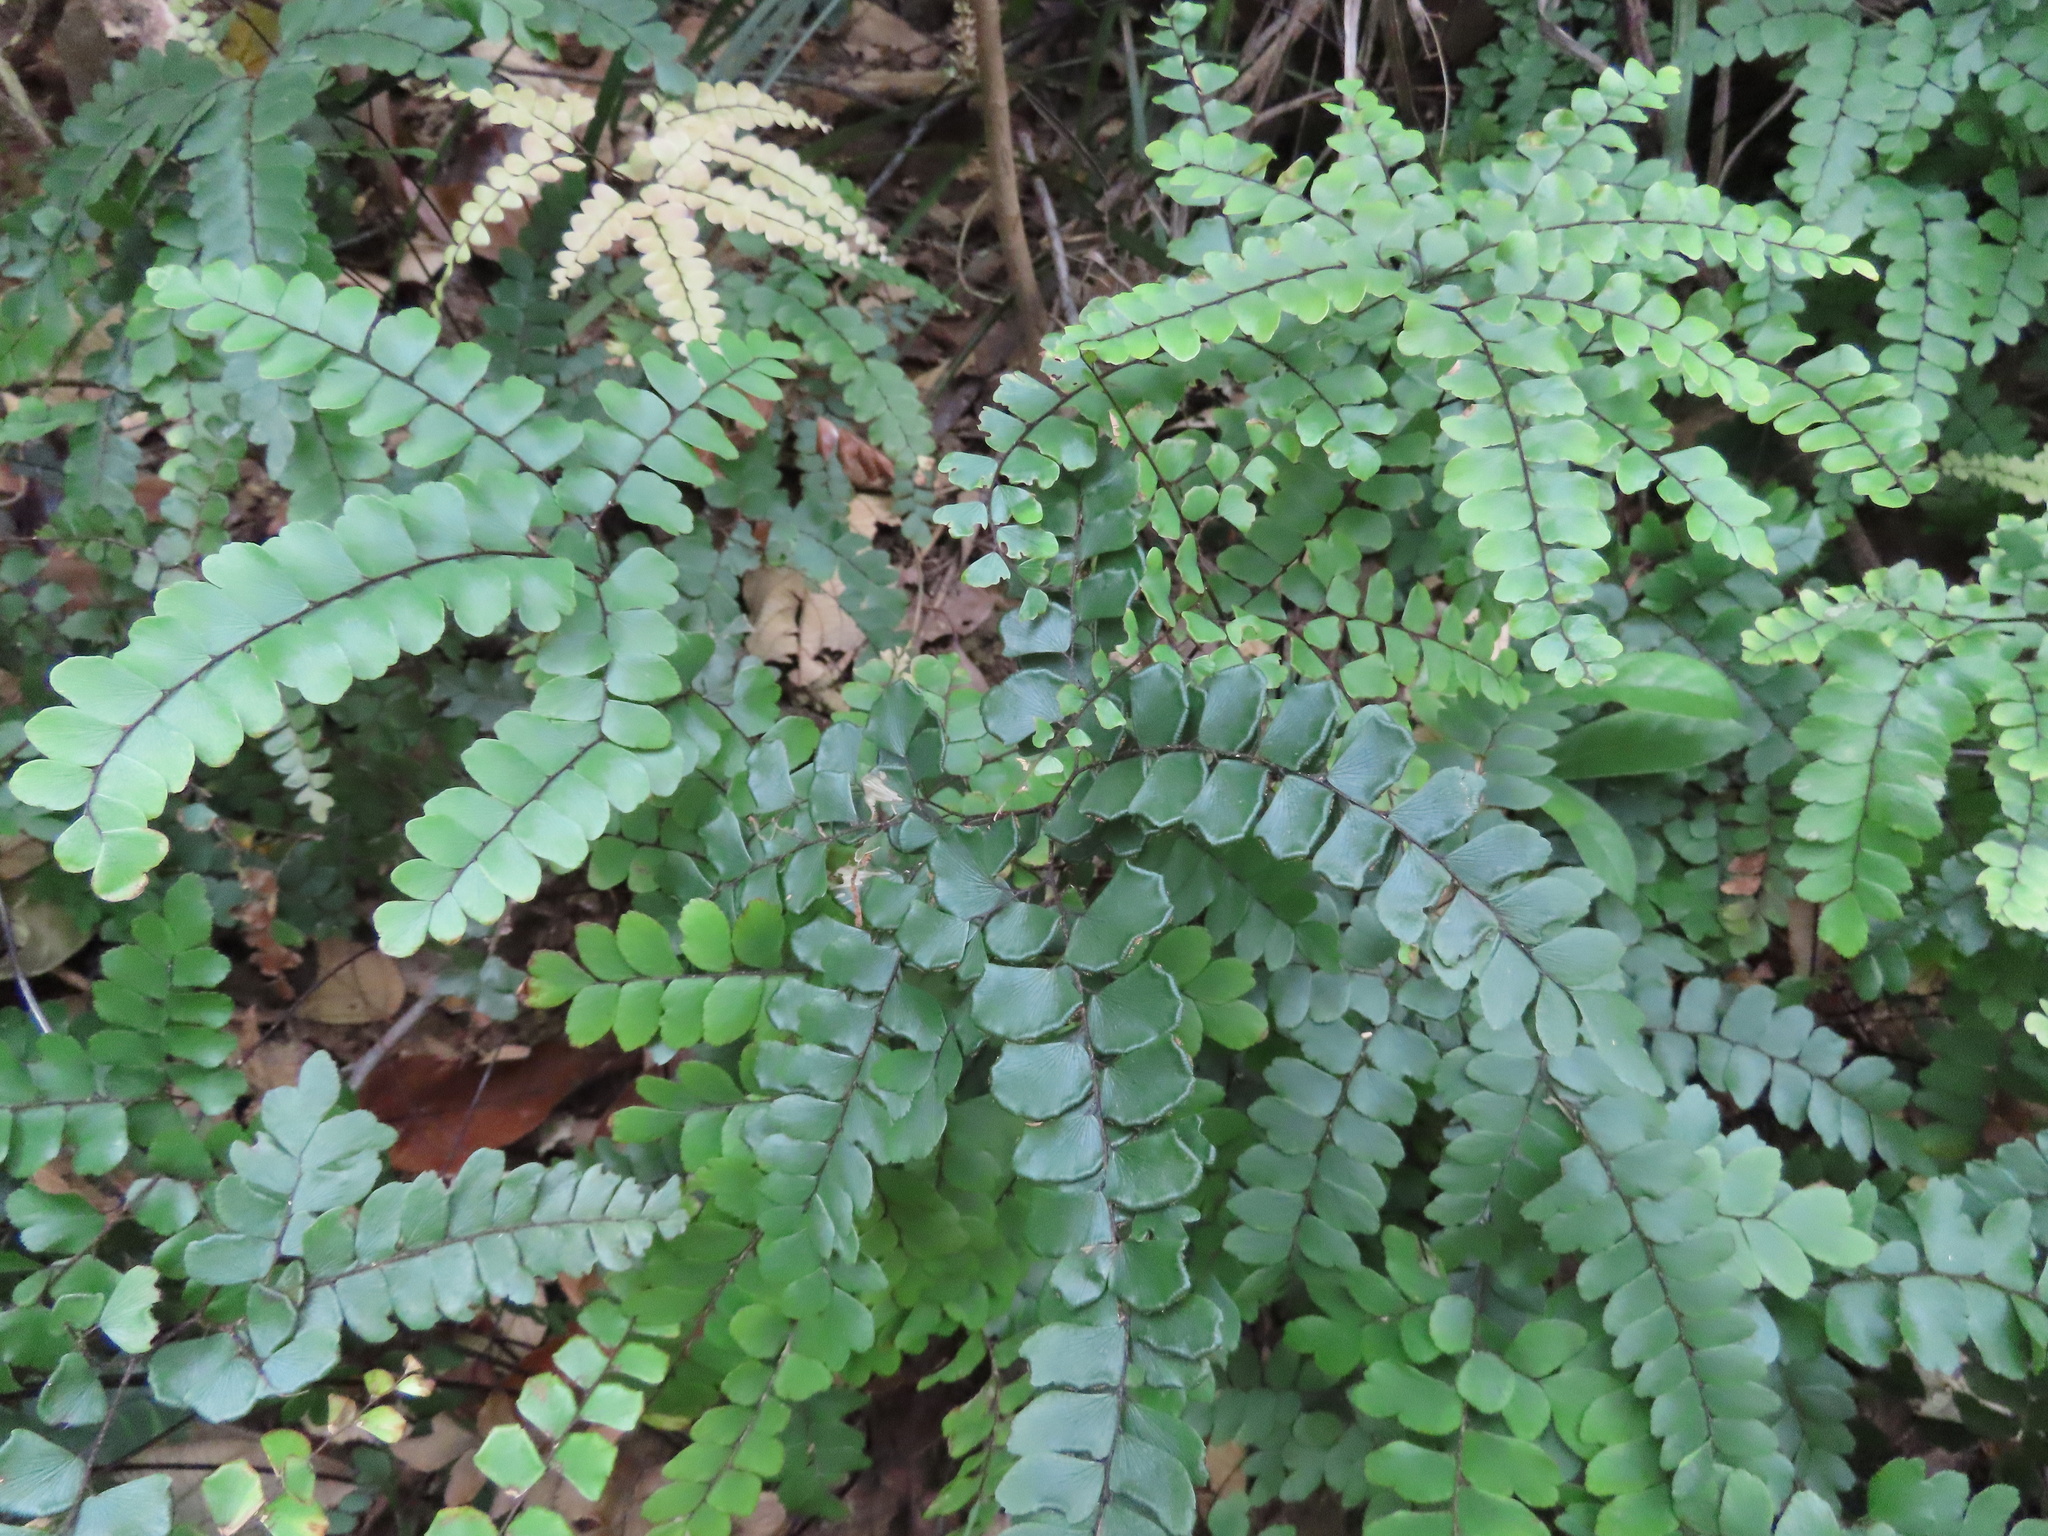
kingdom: Plantae
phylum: Tracheophyta
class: Polypodiopsida
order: Polypodiales
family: Pteridaceae
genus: Adiantum
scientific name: Adiantum flabellulatum
